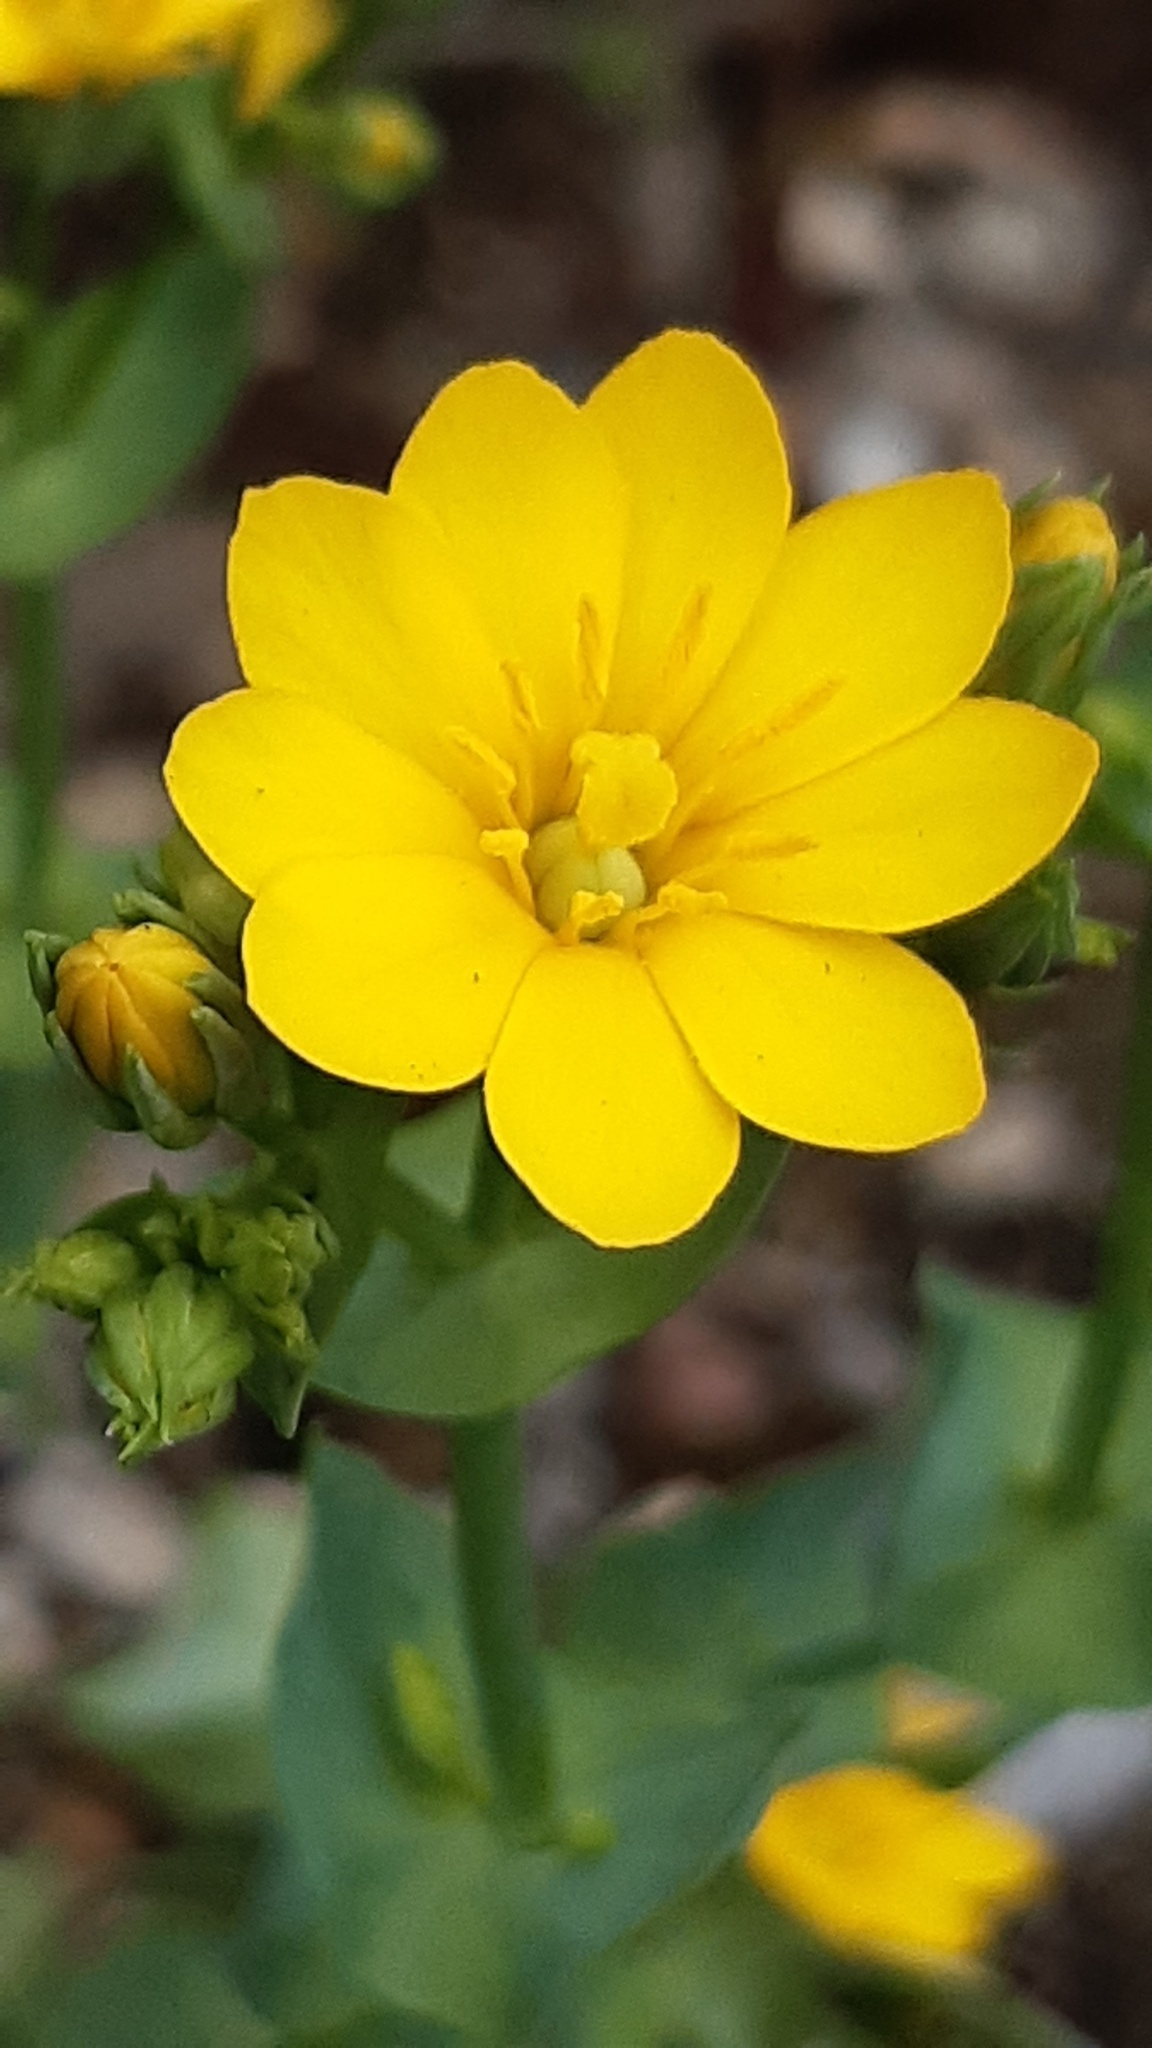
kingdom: Plantae
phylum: Tracheophyta
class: Magnoliopsida
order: Gentianales
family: Gentianaceae
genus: Blackstonia
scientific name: Blackstonia perfoliata
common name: Yellow-wort
